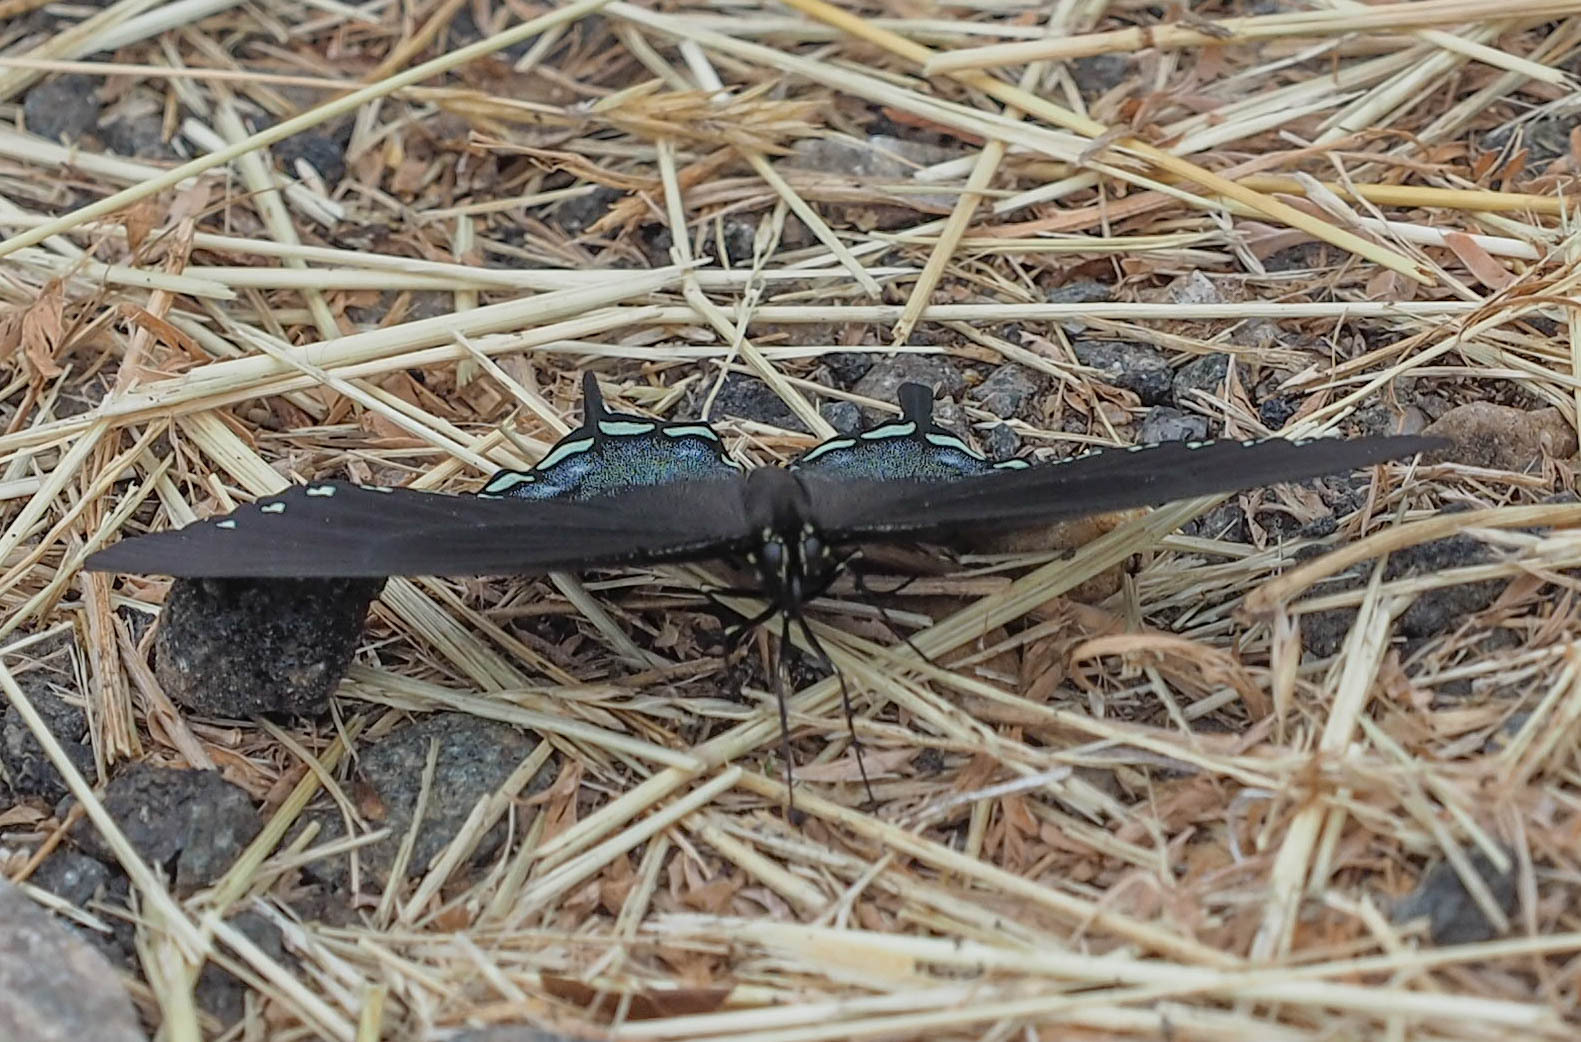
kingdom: Animalia
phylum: Arthropoda
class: Insecta
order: Lepidoptera
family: Papilionidae
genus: Papilio
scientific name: Papilio troilus
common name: Spicebush swallowtail
